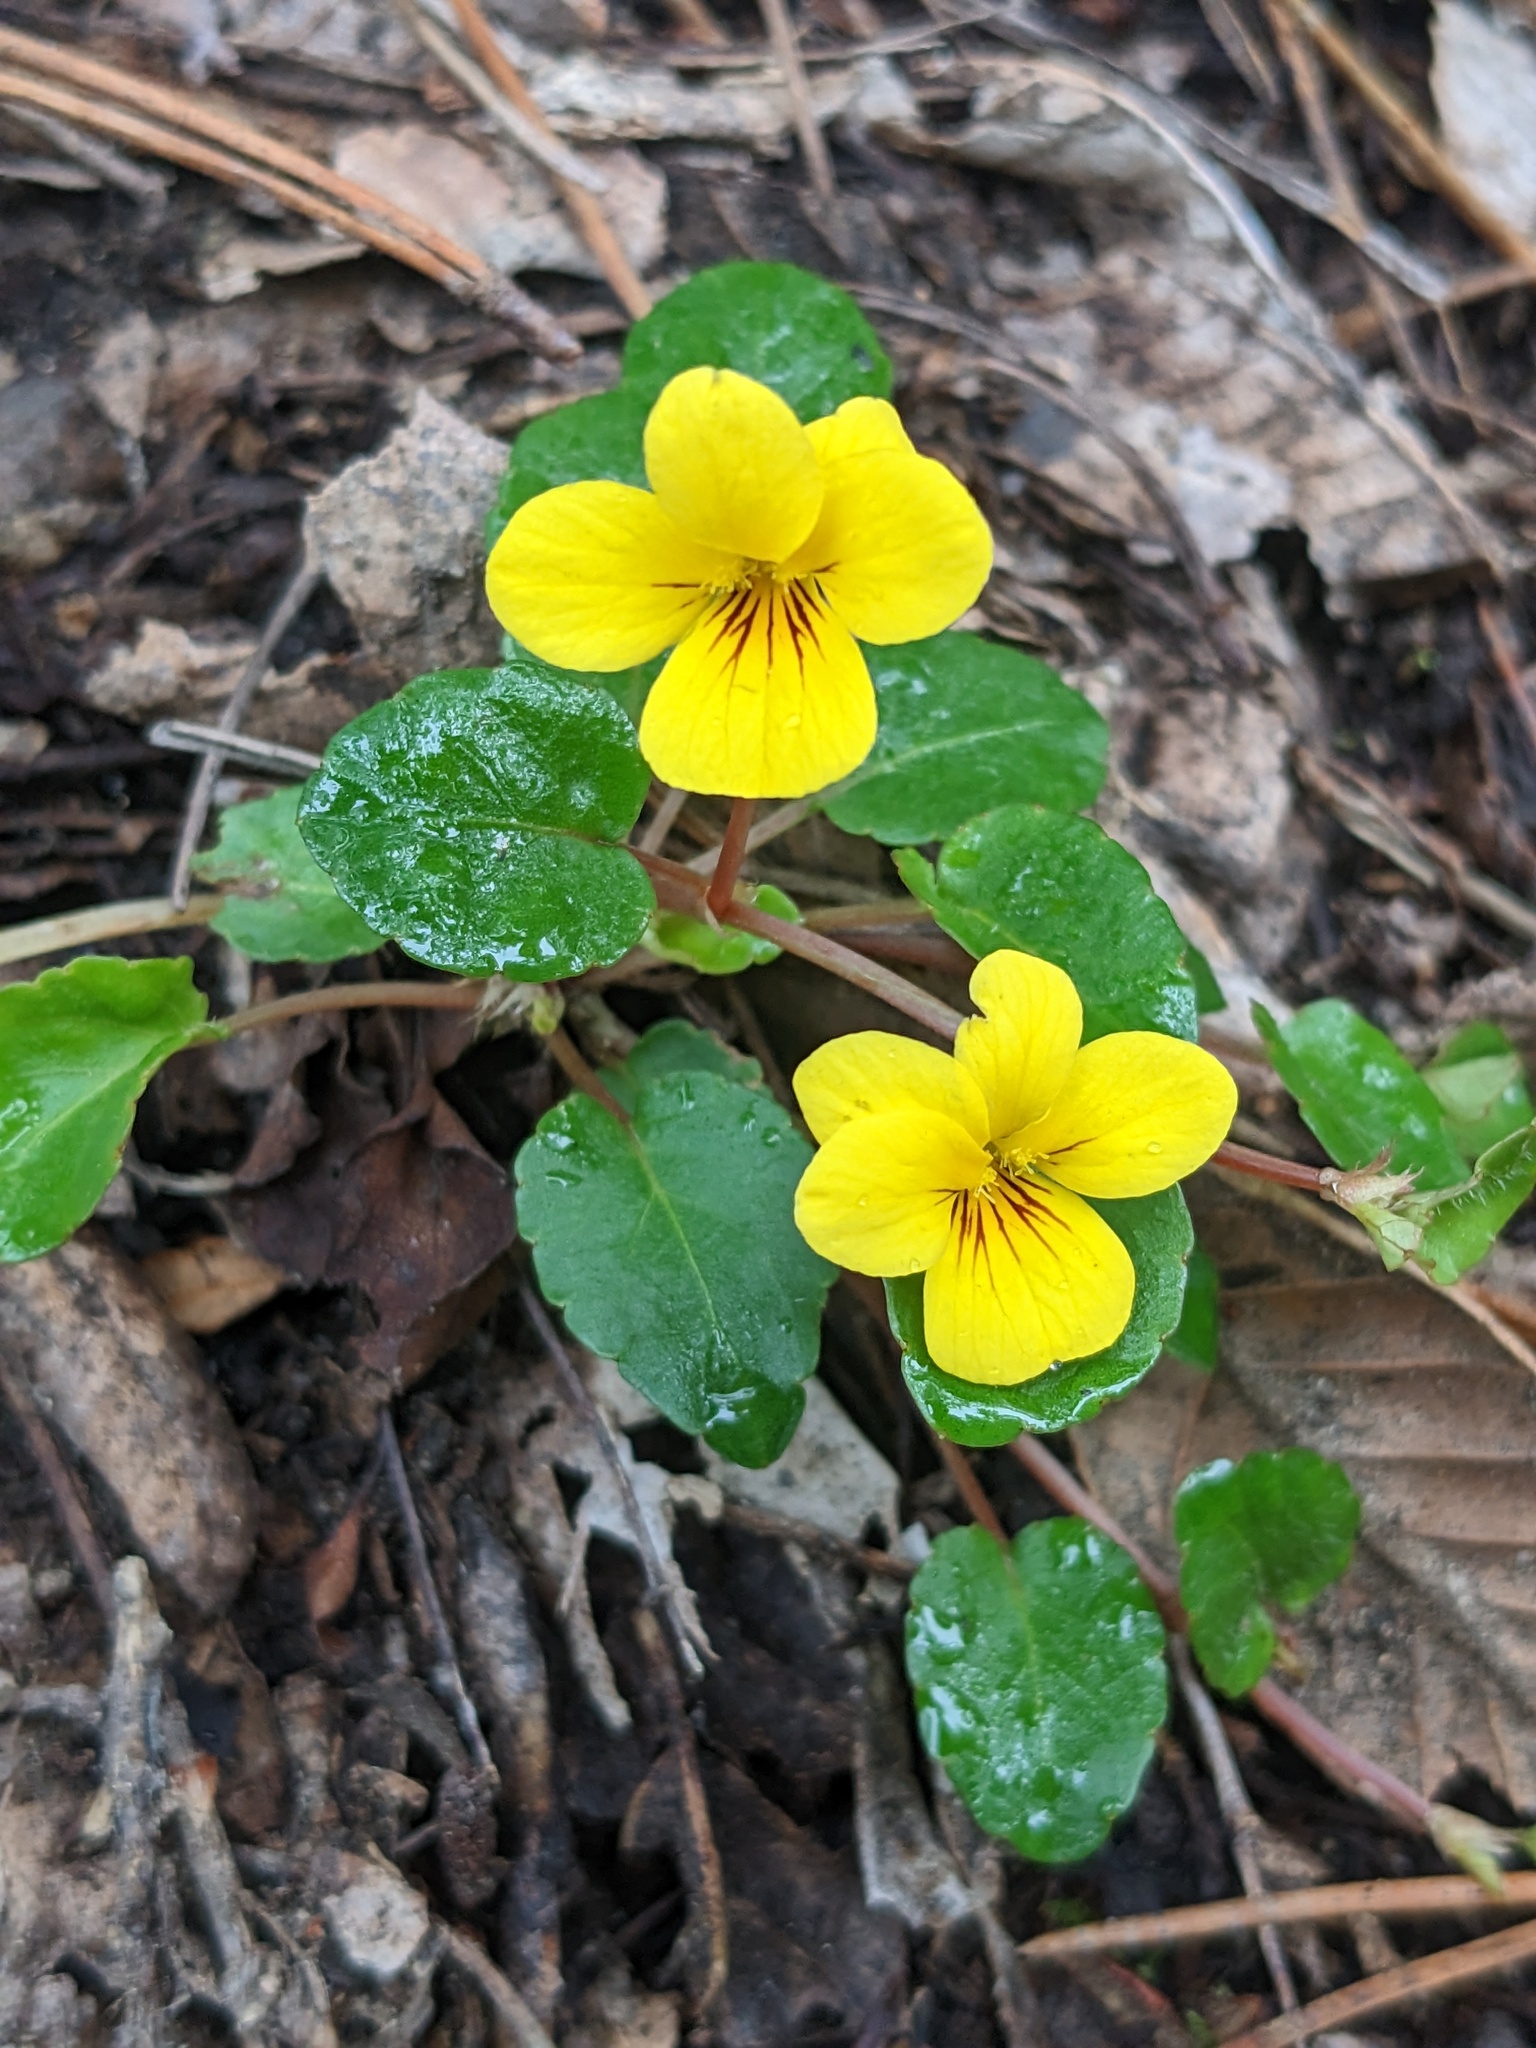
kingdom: Plantae
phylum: Tracheophyta
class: Magnoliopsida
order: Malpighiales
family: Violaceae
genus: Viola
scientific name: Viola sempervirens
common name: Evergreen violet
